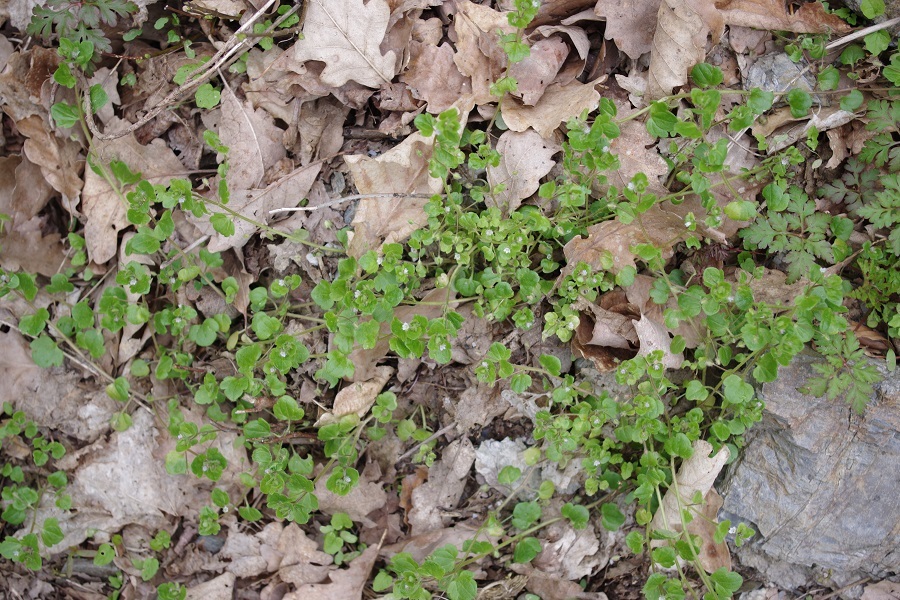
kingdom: Plantae
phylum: Tracheophyta
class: Magnoliopsida
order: Lamiales
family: Plantaginaceae
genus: Veronica
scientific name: Veronica sublobata
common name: False ivy-leaved speedwell
